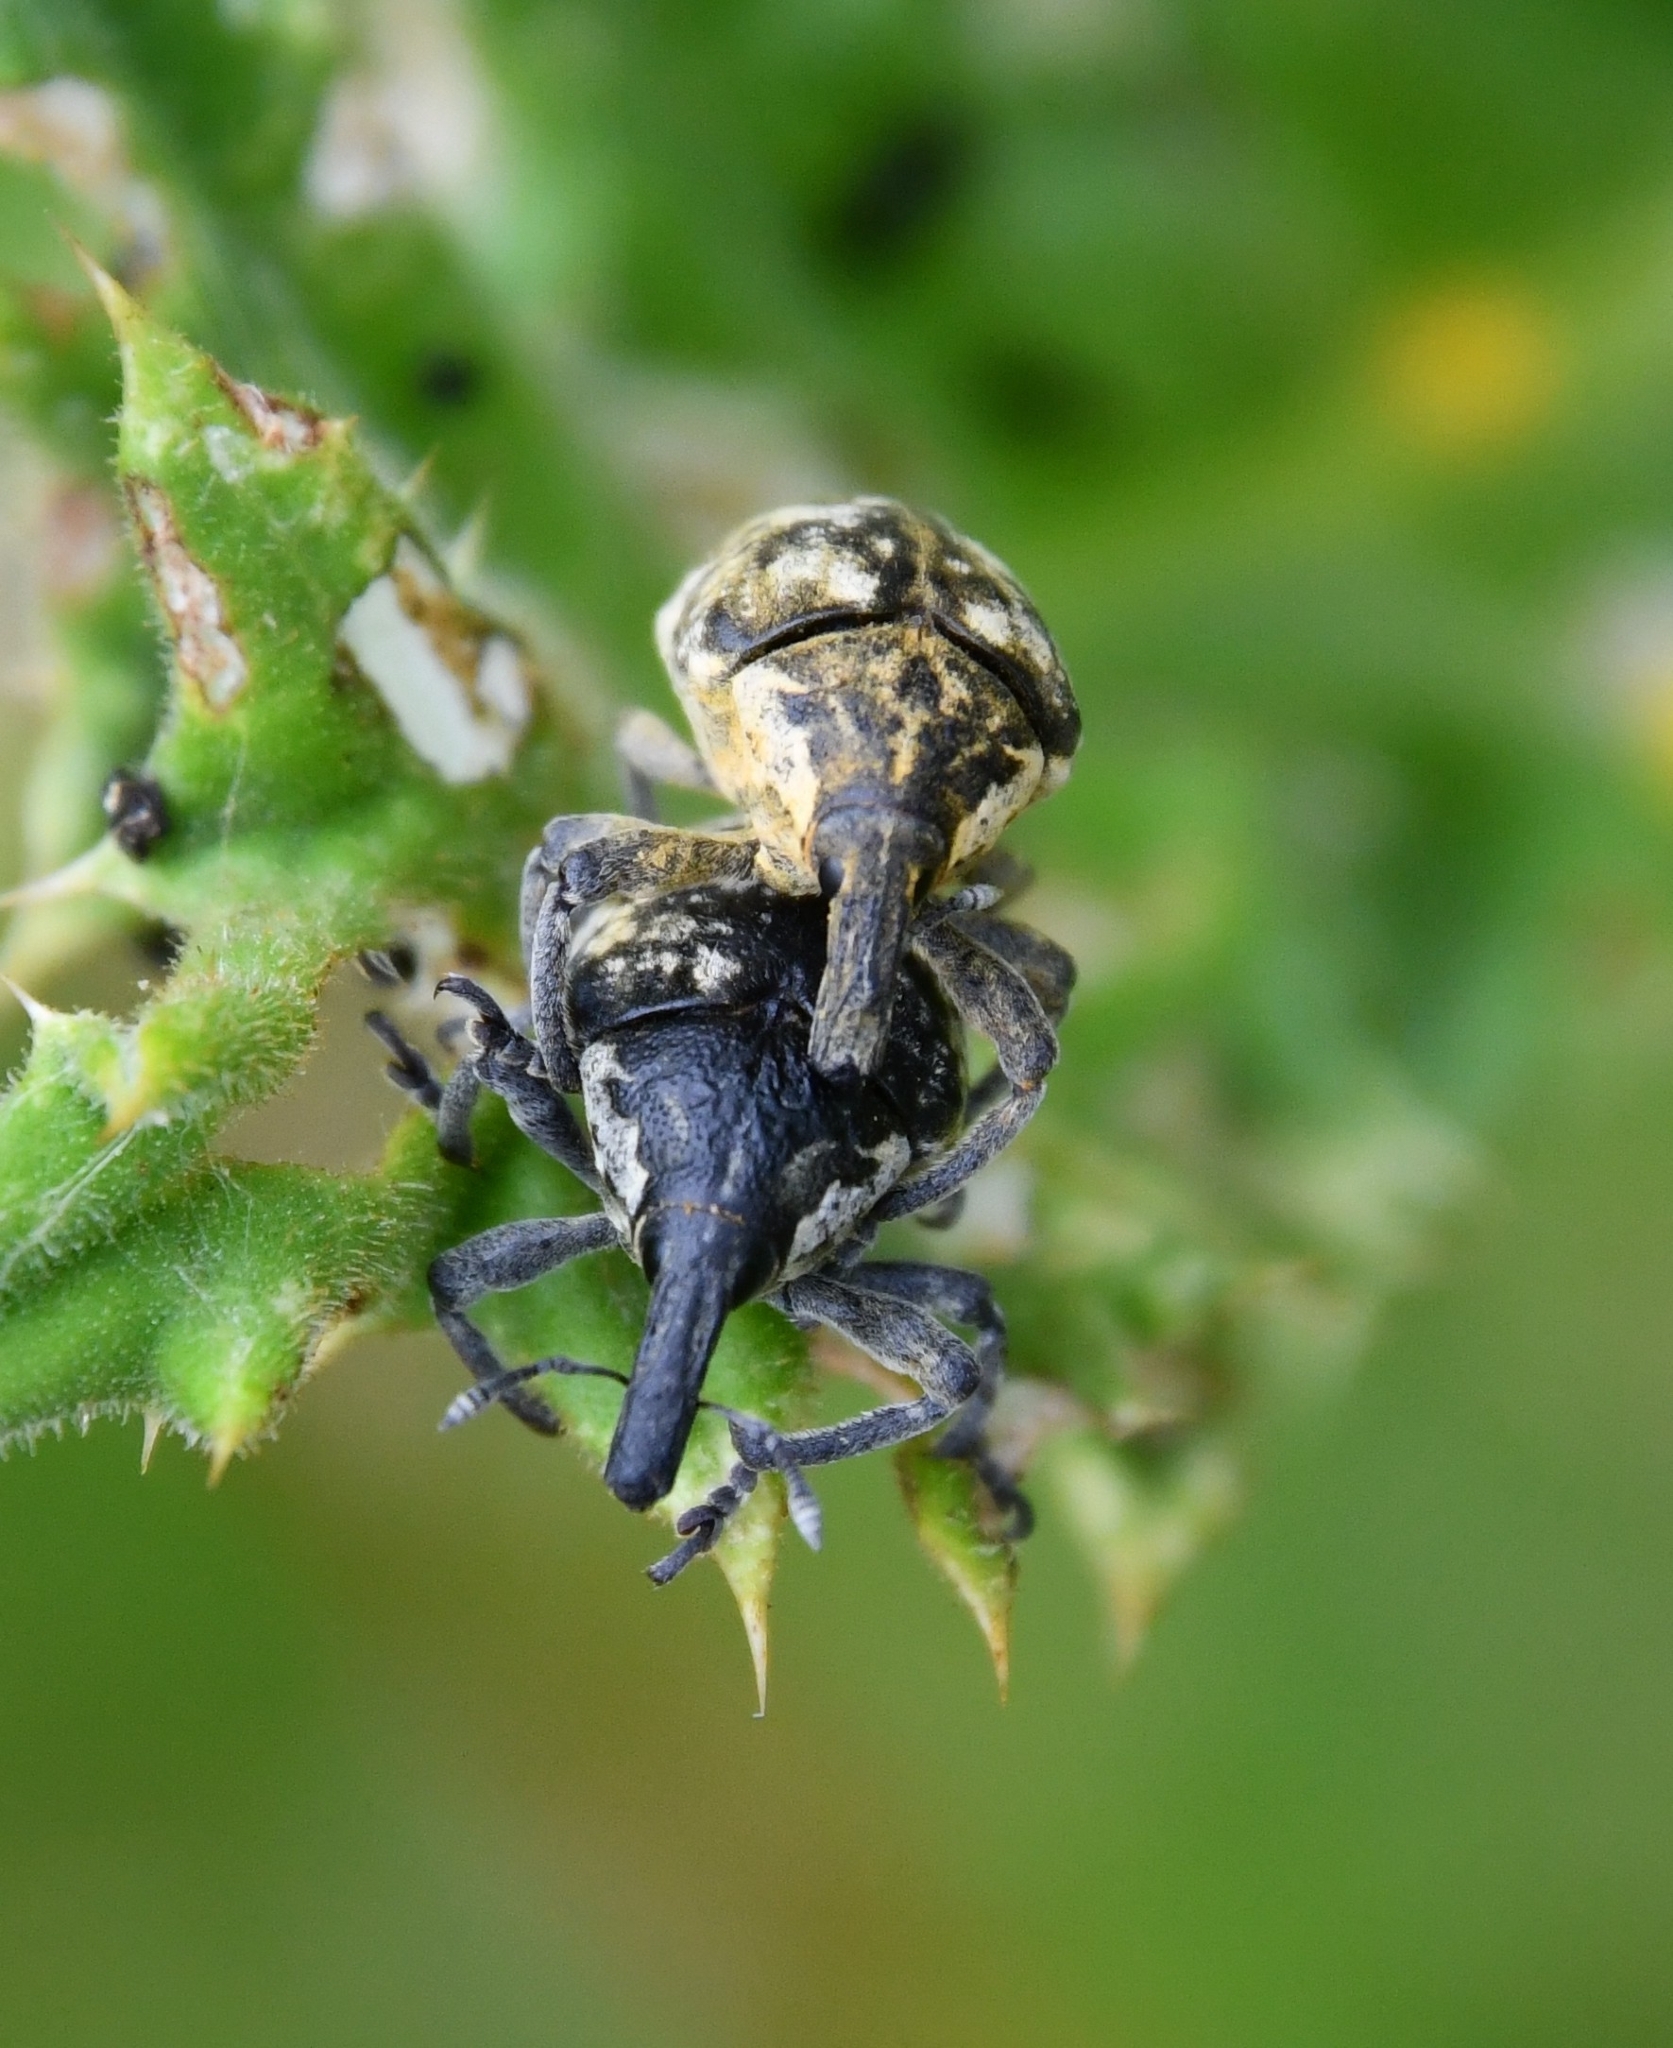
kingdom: Animalia
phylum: Arthropoda
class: Insecta
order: Coleoptera
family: Curculionidae
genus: Larinus
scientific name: Larinus vulpes
